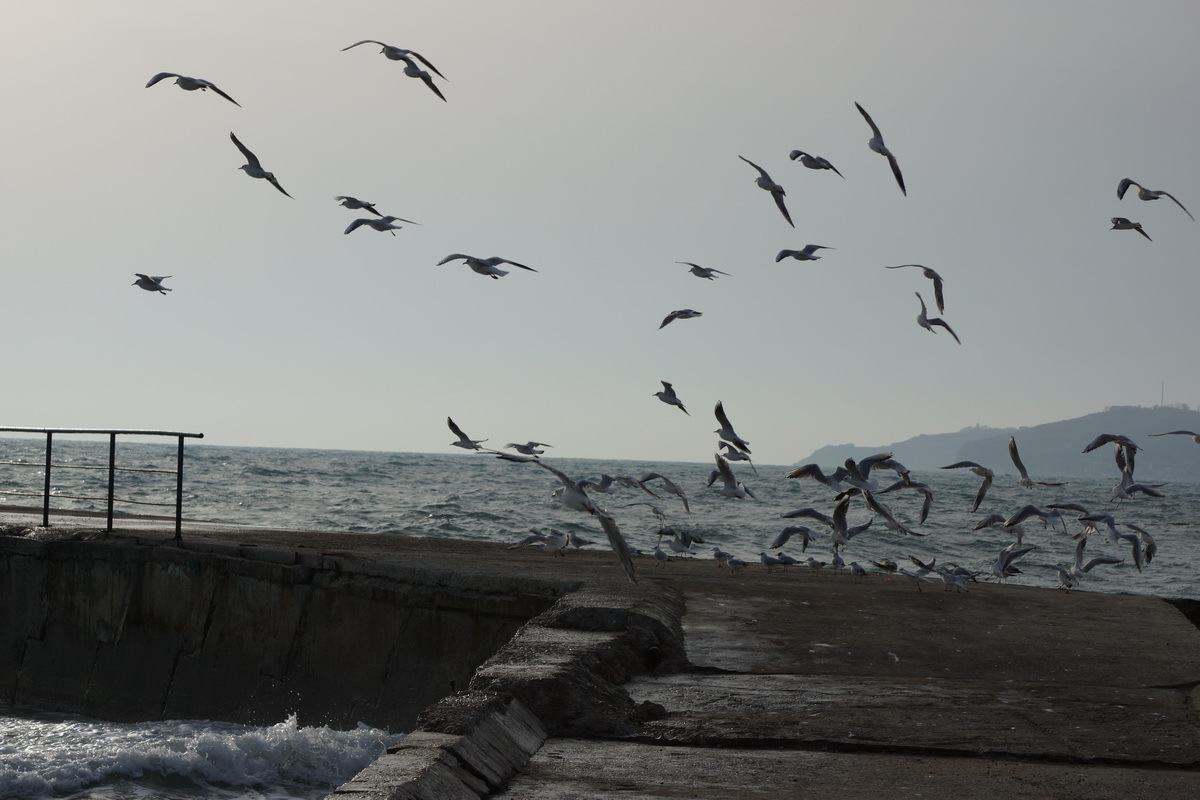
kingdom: Animalia
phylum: Chordata
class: Aves
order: Charadriiformes
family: Laridae
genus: Chroicocephalus
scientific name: Chroicocephalus ridibundus
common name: Black-headed gull
